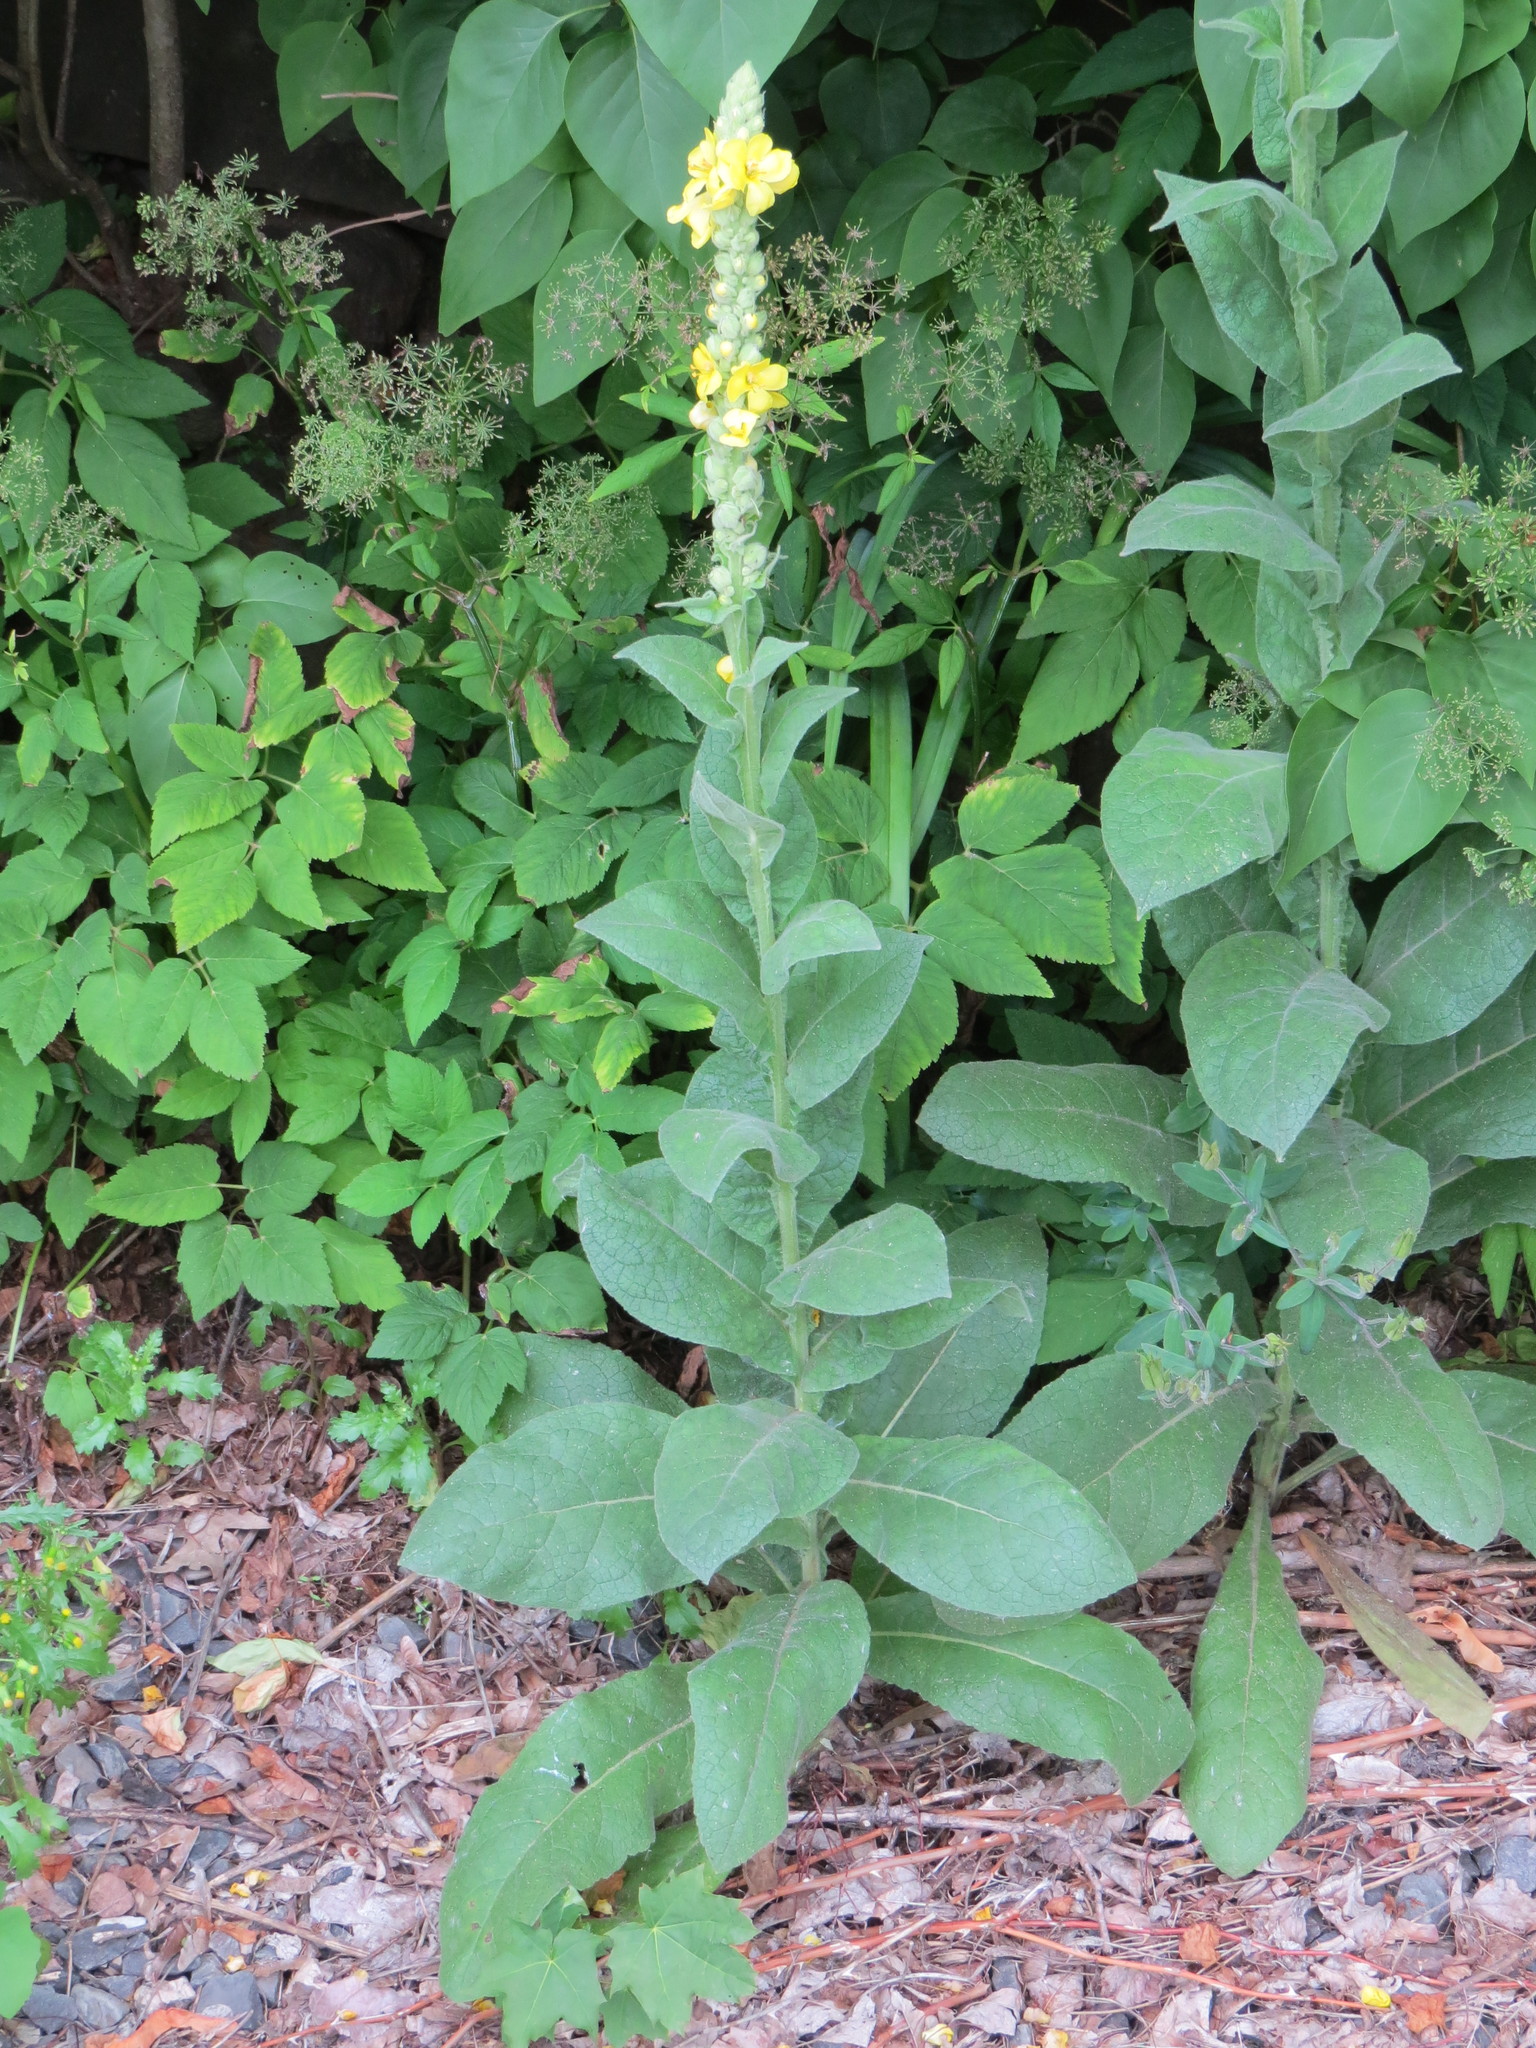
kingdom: Plantae
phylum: Tracheophyta
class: Magnoliopsida
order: Lamiales
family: Scrophulariaceae
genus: Verbascum
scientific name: Verbascum thapsus
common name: Common mullein
